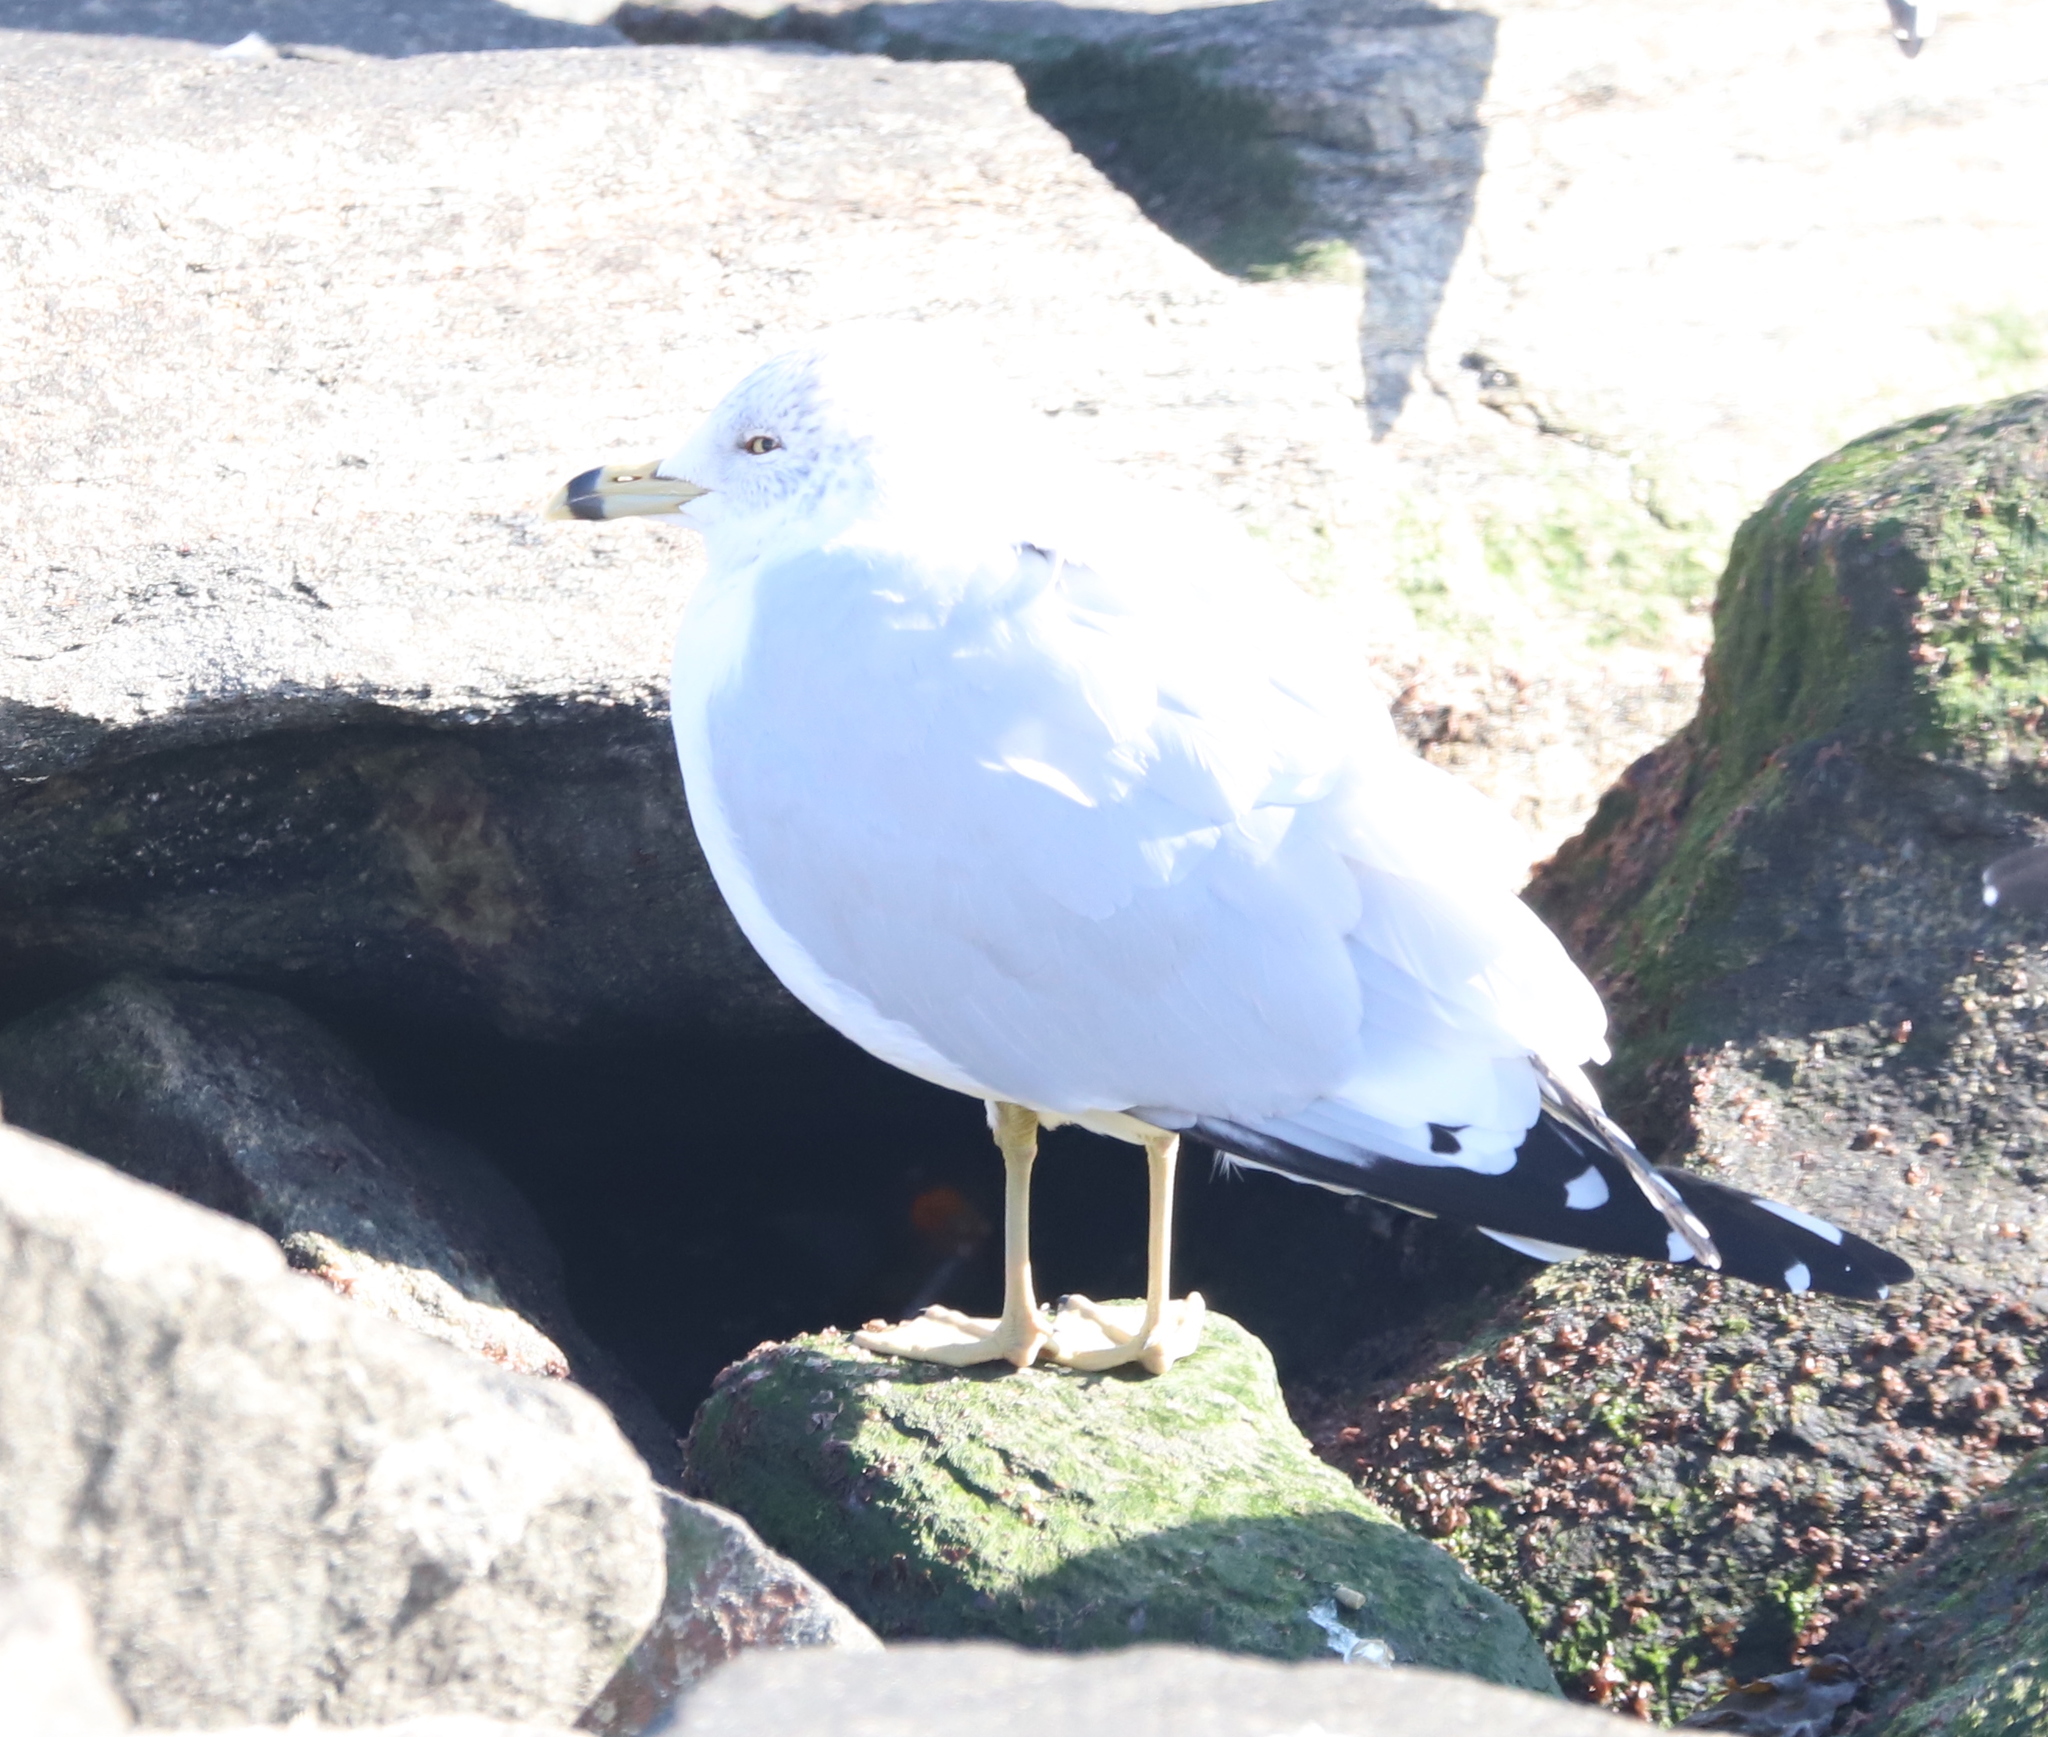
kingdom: Animalia
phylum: Chordata
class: Aves
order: Charadriiformes
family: Laridae
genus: Larus
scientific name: Larus delawarensis
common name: Ring-billed gull
